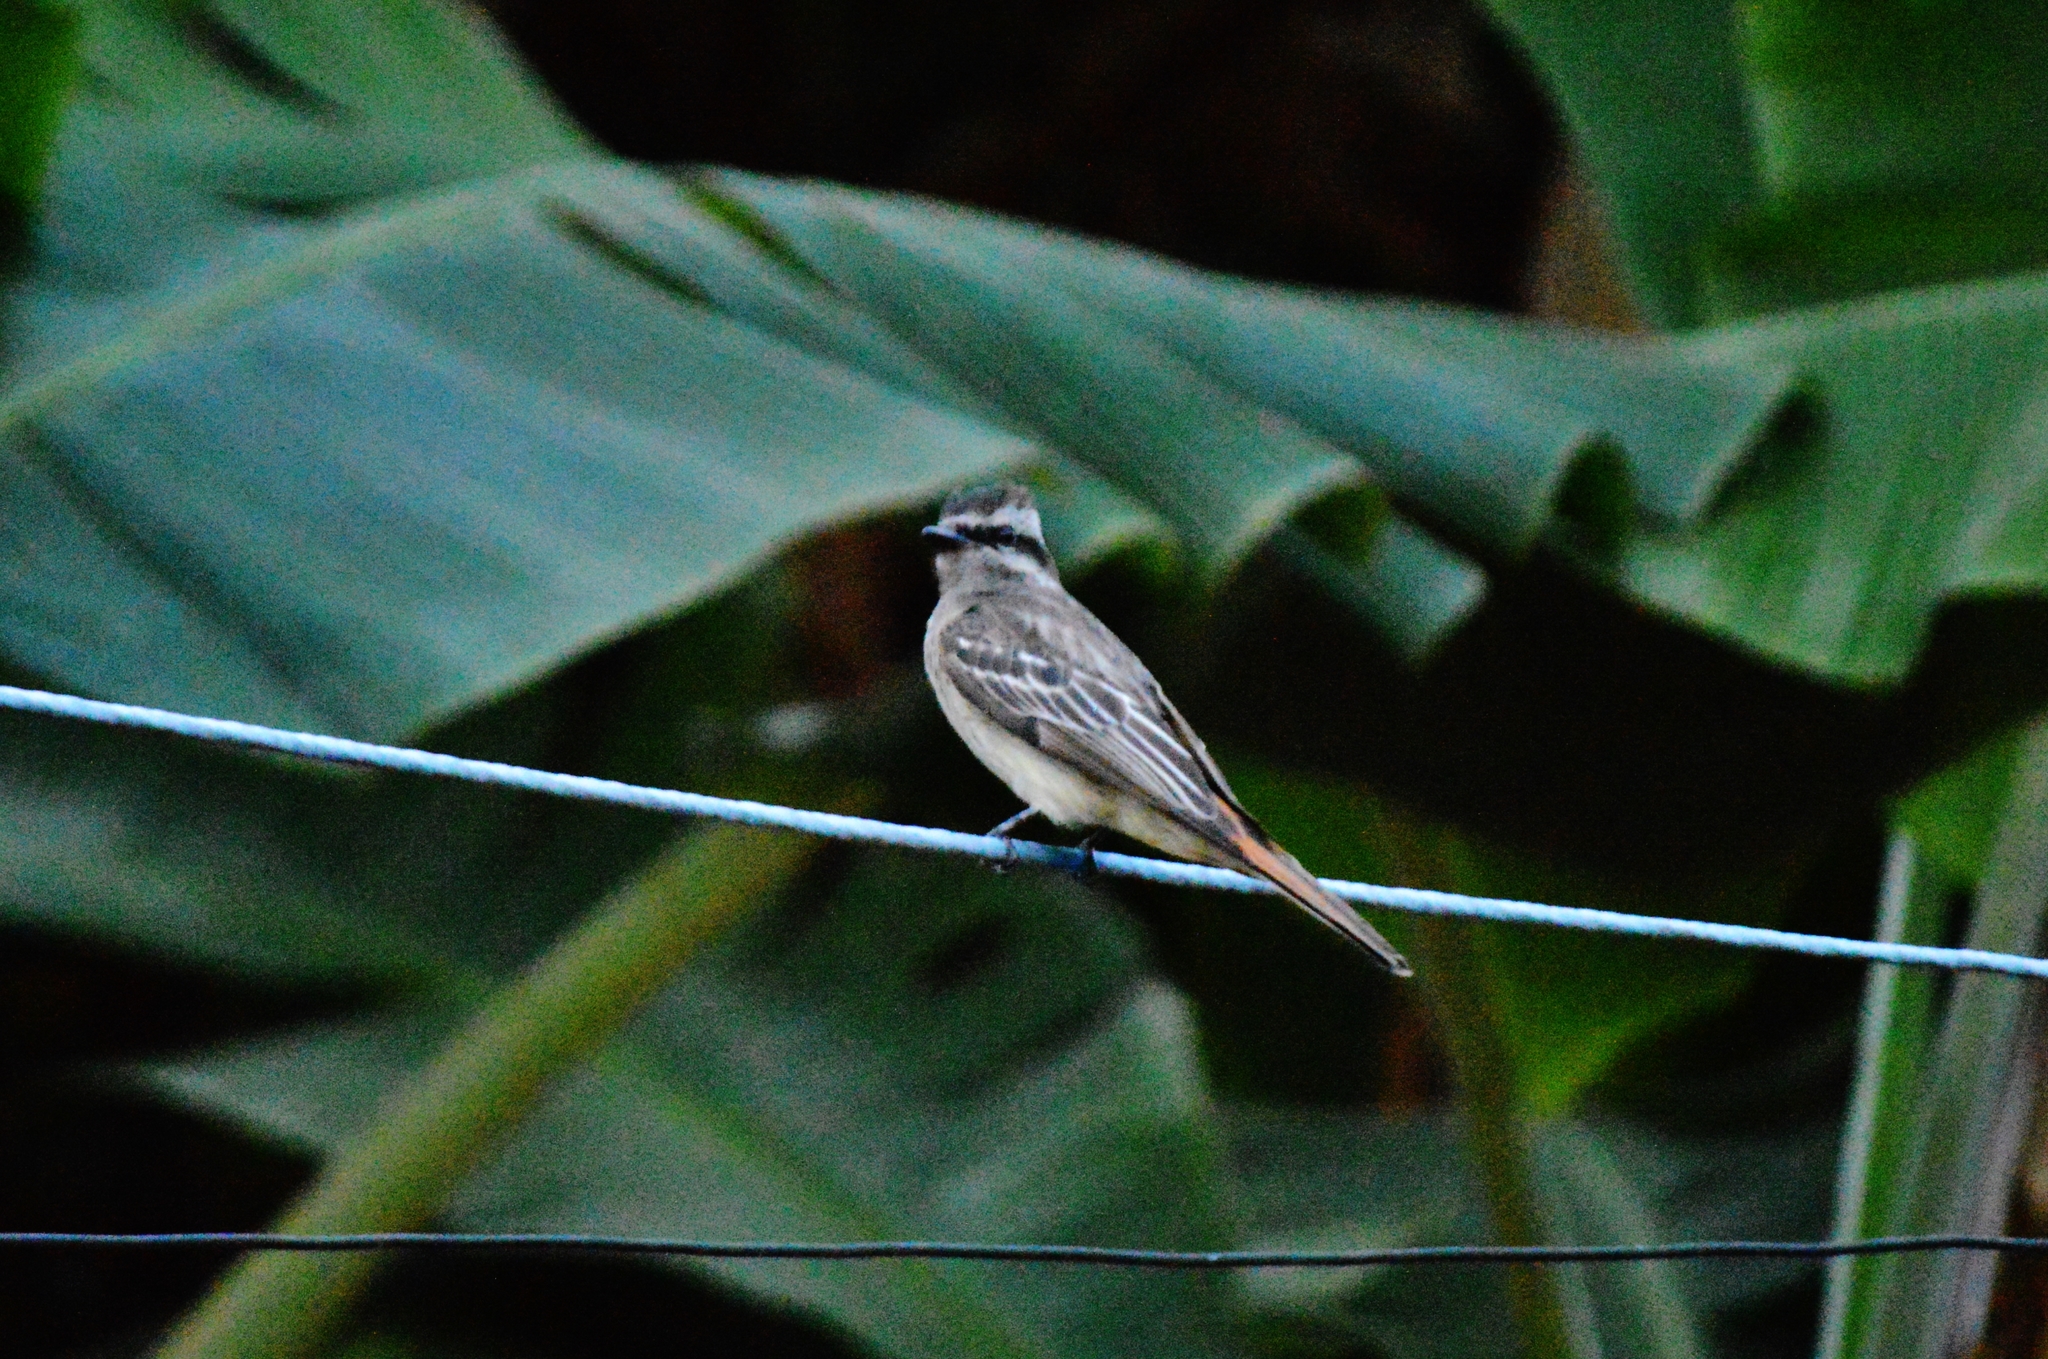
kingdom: Animalia
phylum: Chordata
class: Aves
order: Passeriformes
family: Tyrannidae
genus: Empidonomus
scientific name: Empidonomus varius
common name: Variegated flycatcher
